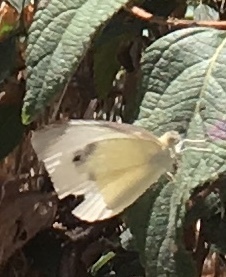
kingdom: Animalia
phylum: Arthropoda
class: Insecta
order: Lepidoptera
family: Pieridae
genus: Pieris
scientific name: Pieris rapae
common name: Small white
